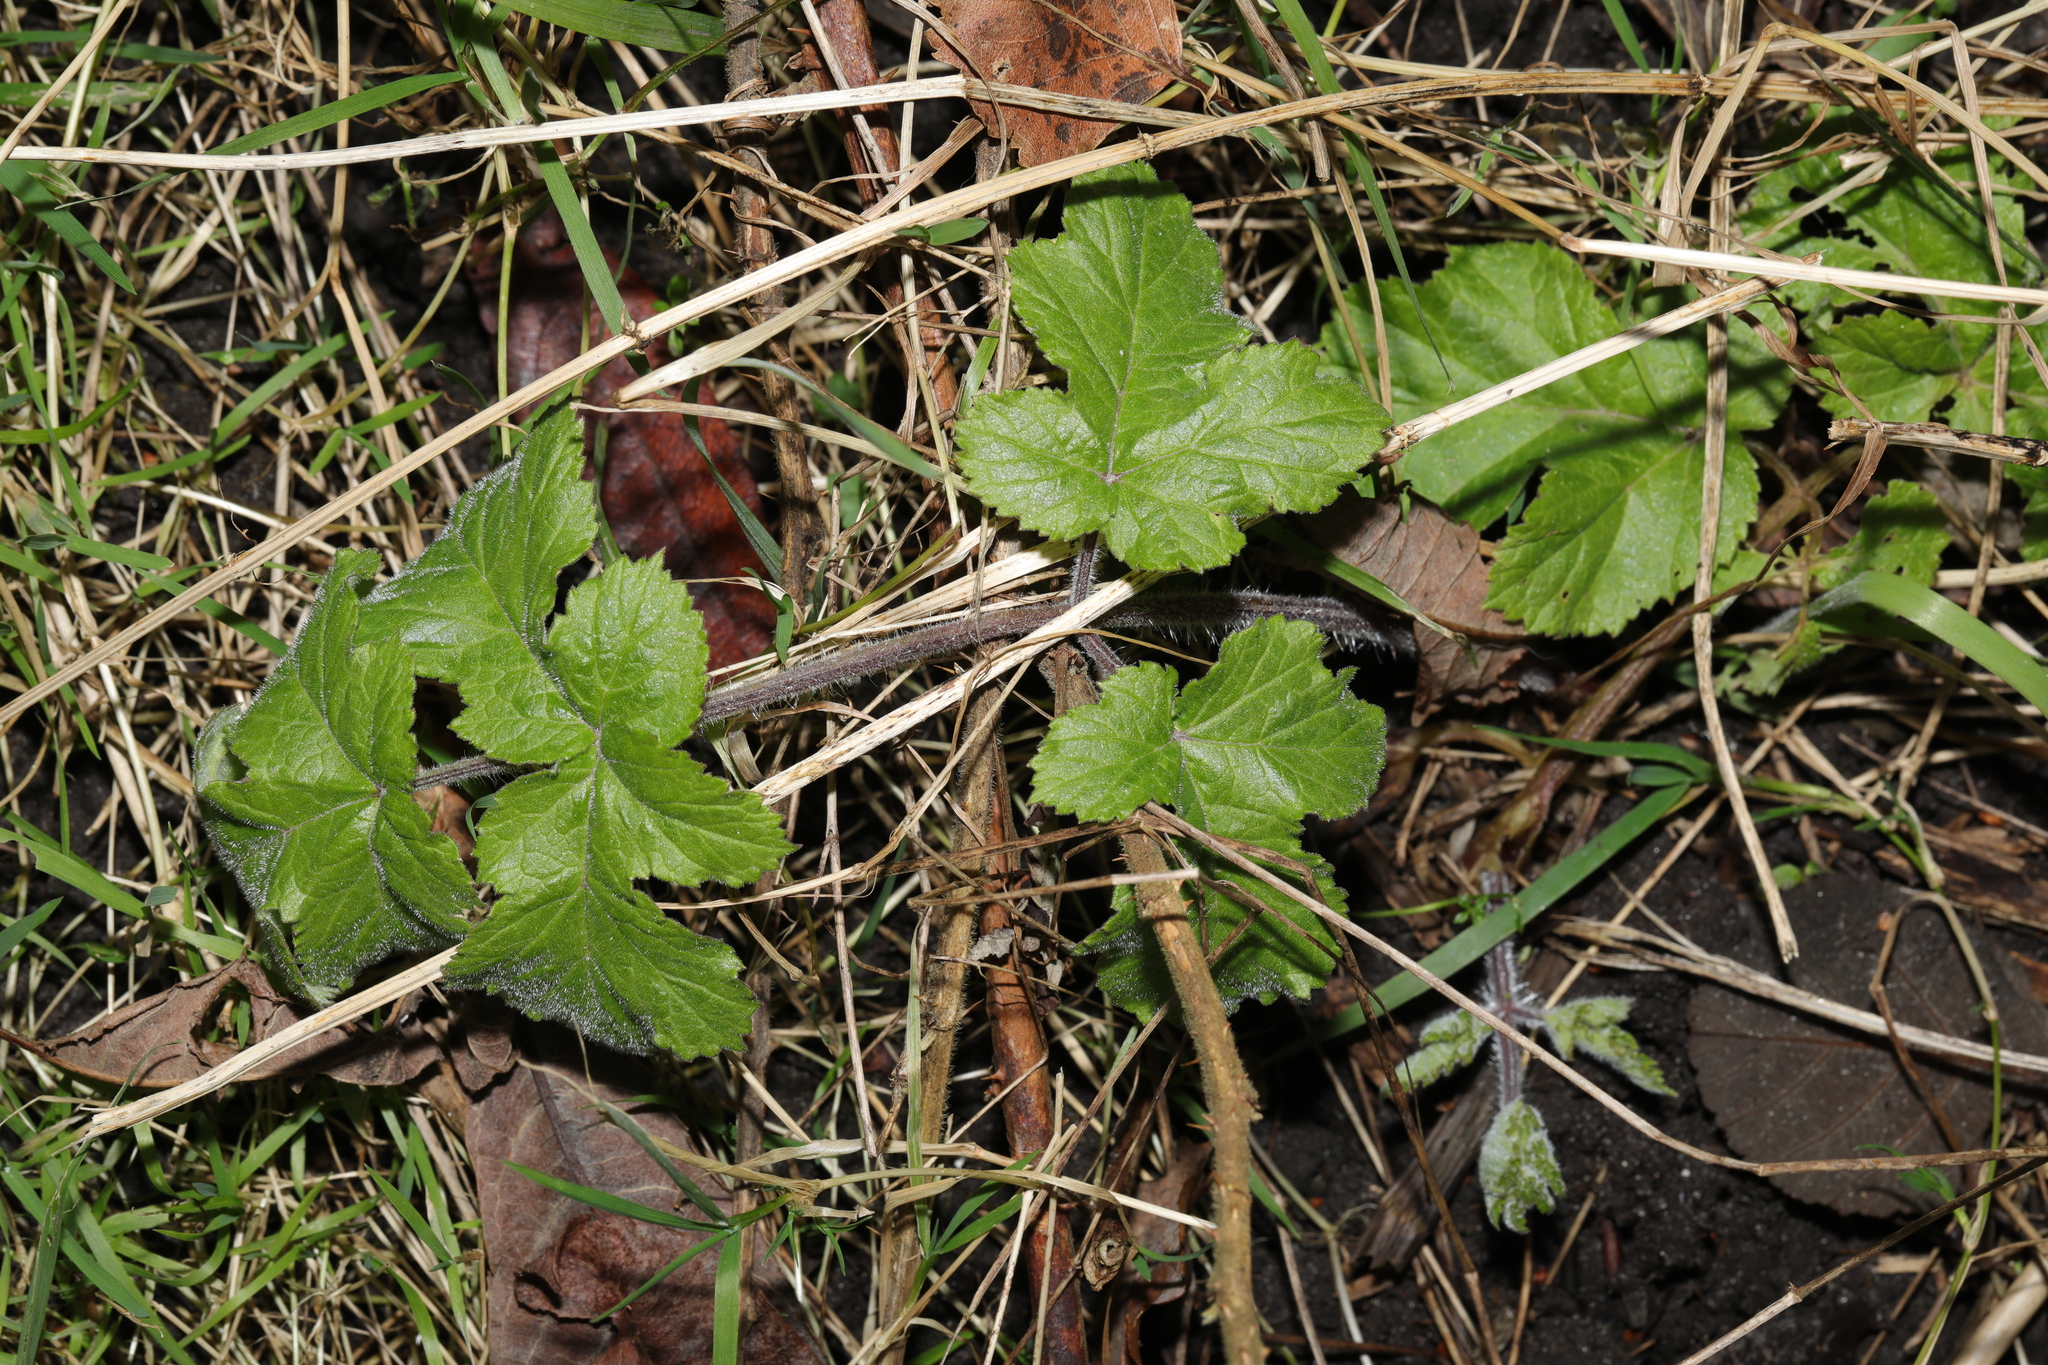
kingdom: Plantae
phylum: Tracheophyta
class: Magnoliopsida
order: Apiales
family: Apiaceae
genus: Heracleum
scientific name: Heracleum sphondylium
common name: Hogweed
